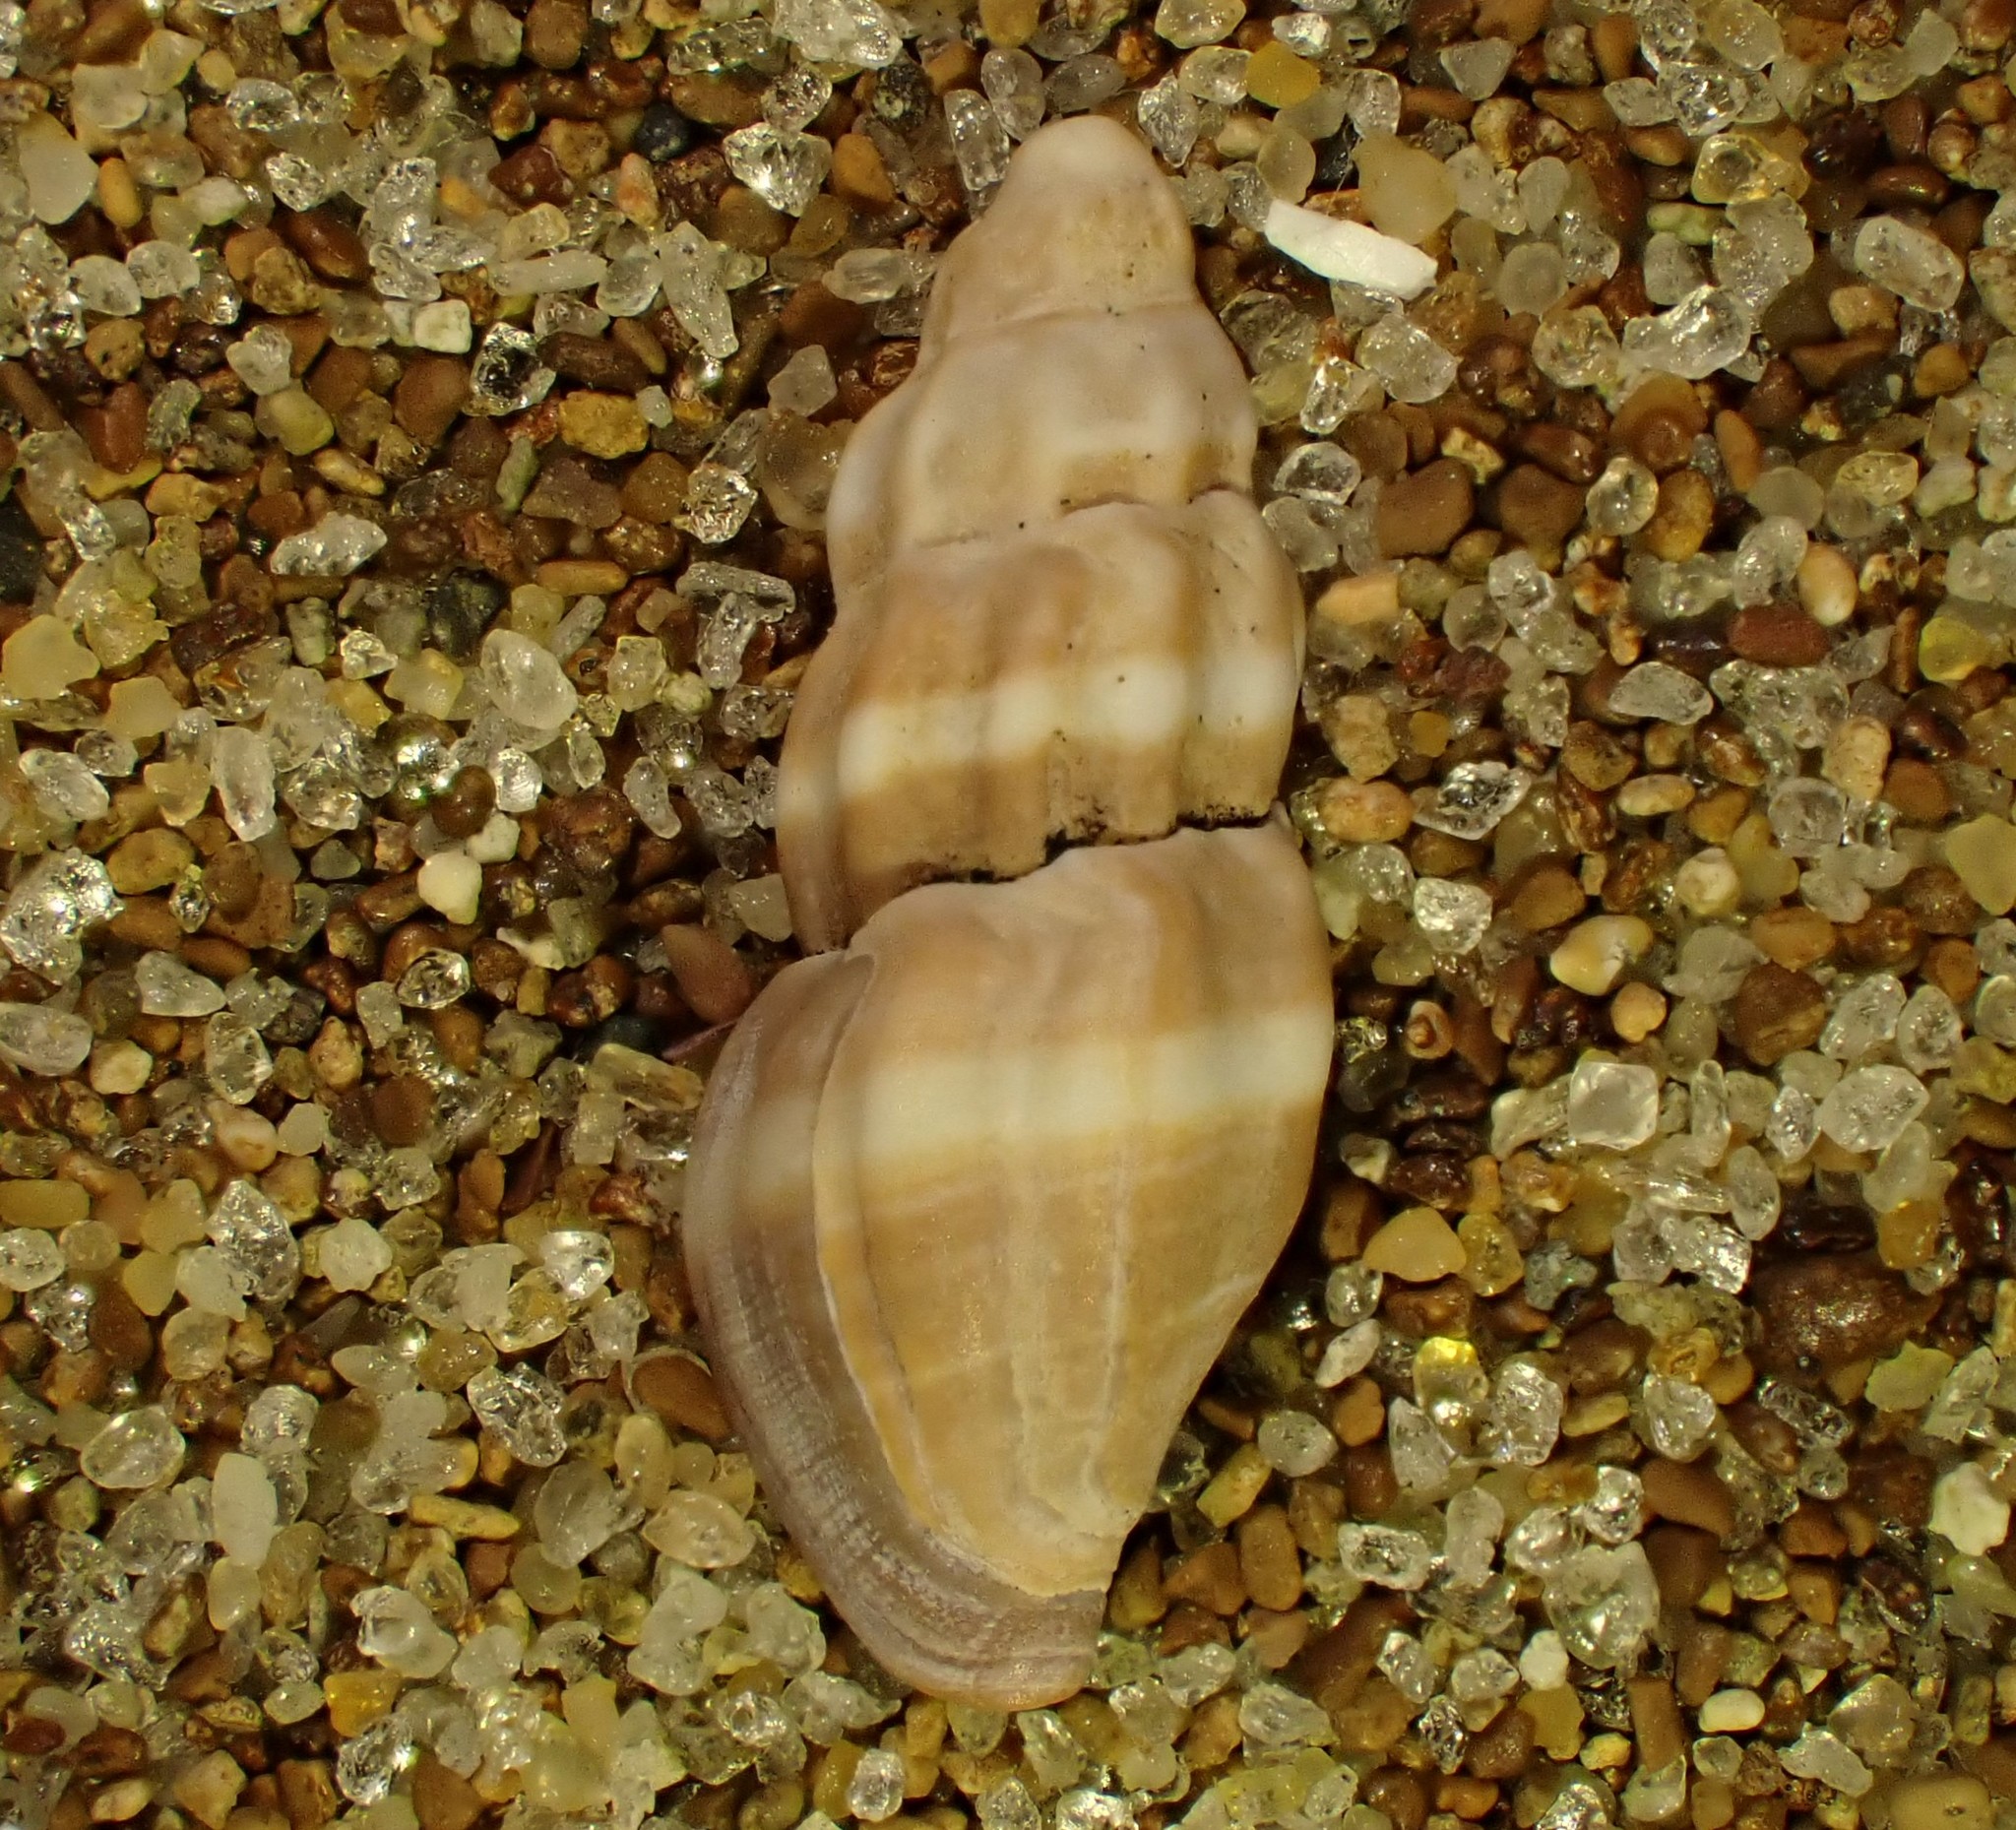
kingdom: Animalia
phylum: Mollusca
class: Gastropoda
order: Neogastropoda
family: Mangeliidae
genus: Neoguraleus
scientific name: Neoguraleus manukauensis
